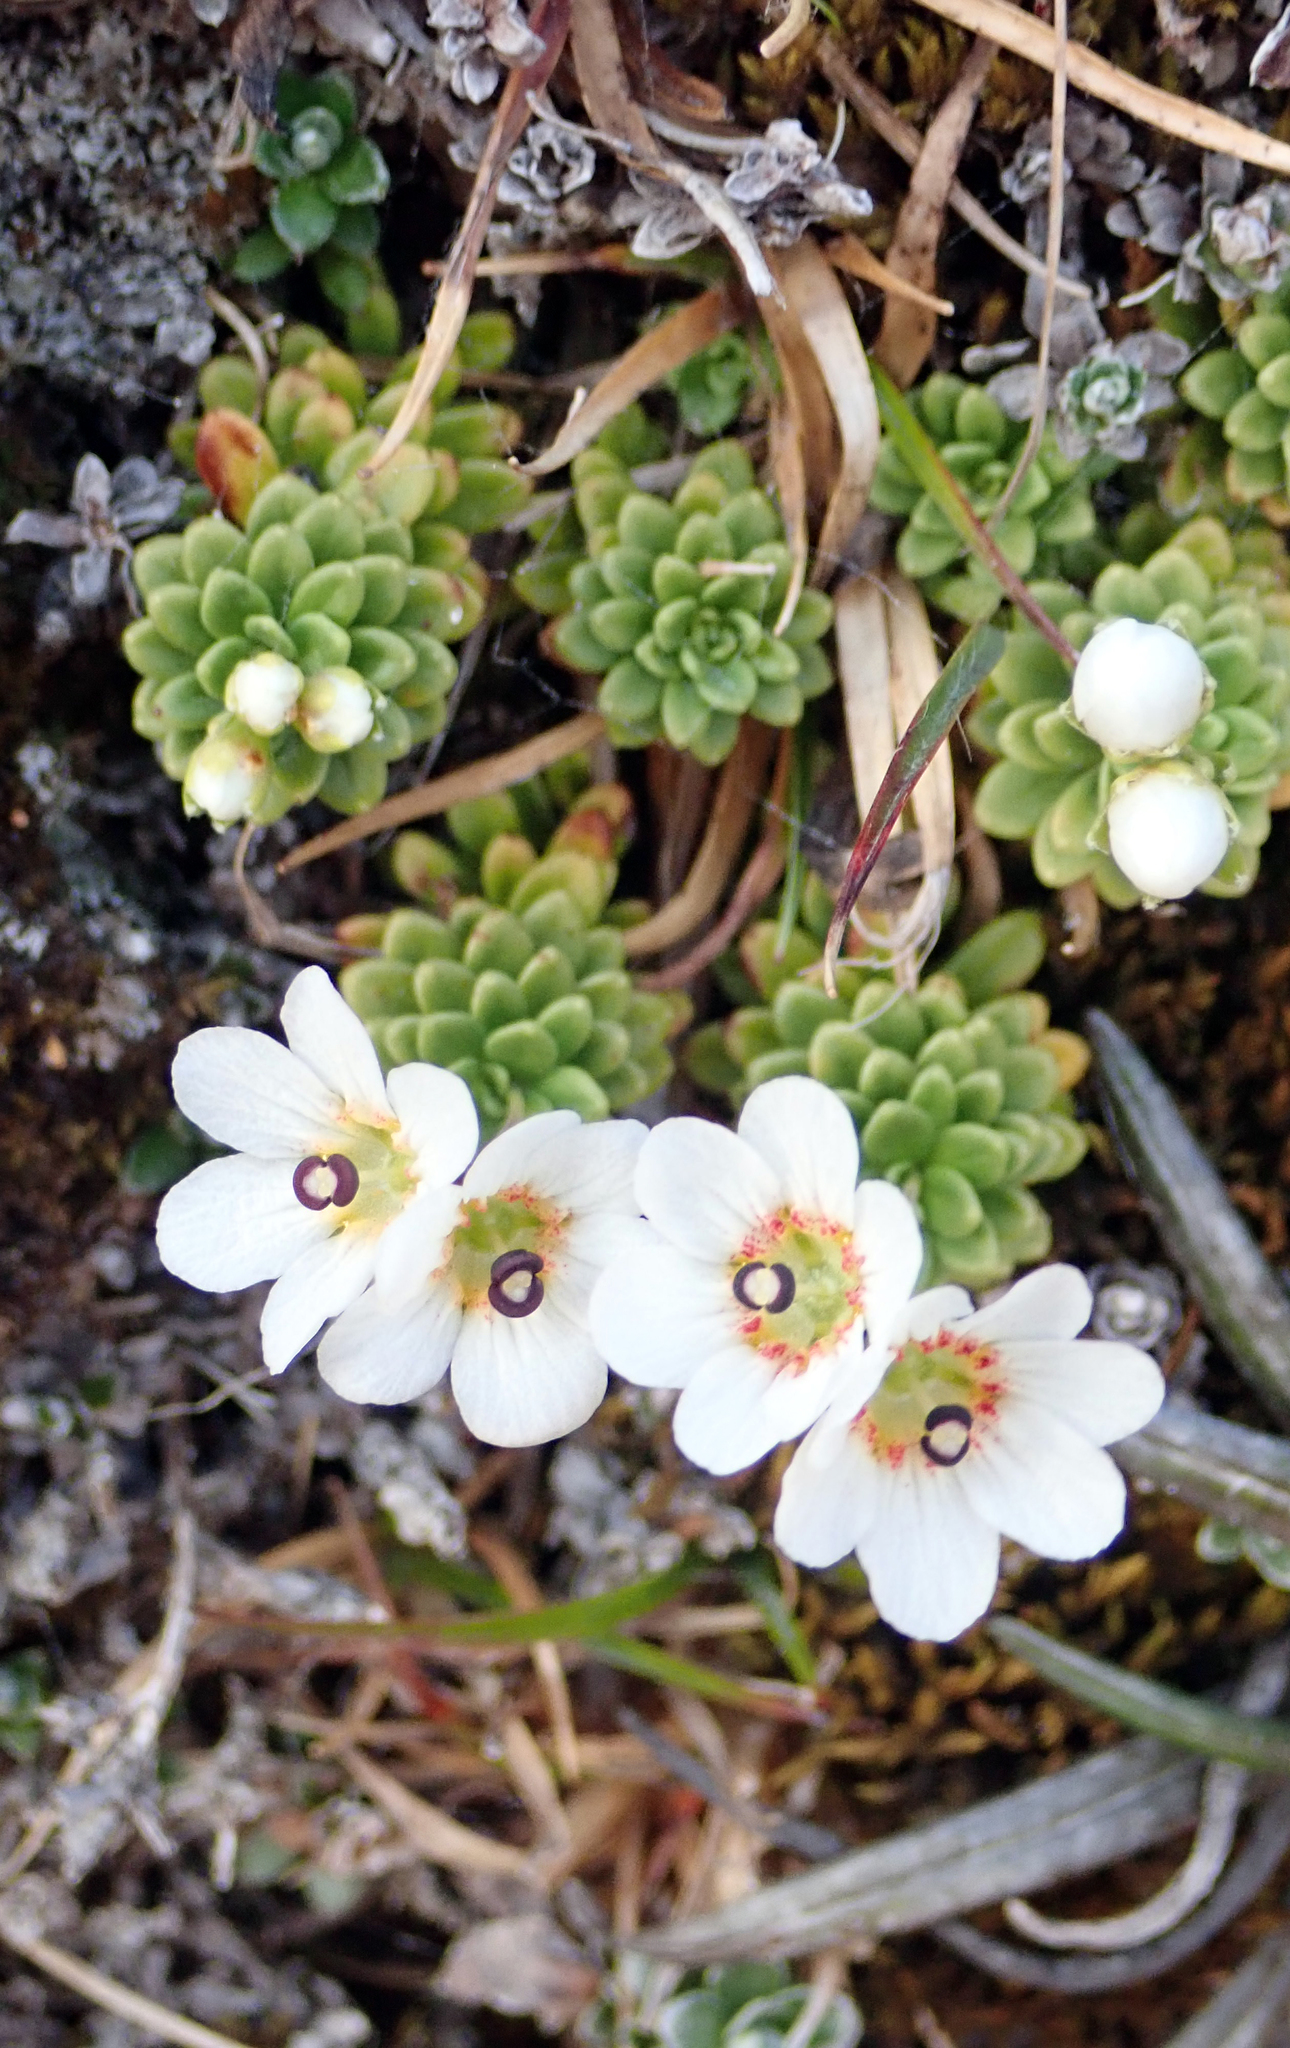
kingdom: Plantae
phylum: Tracheophyta
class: Magnoliopsida
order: Asterales
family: Stylidiaceae
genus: Forstera
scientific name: Forstera tenella
